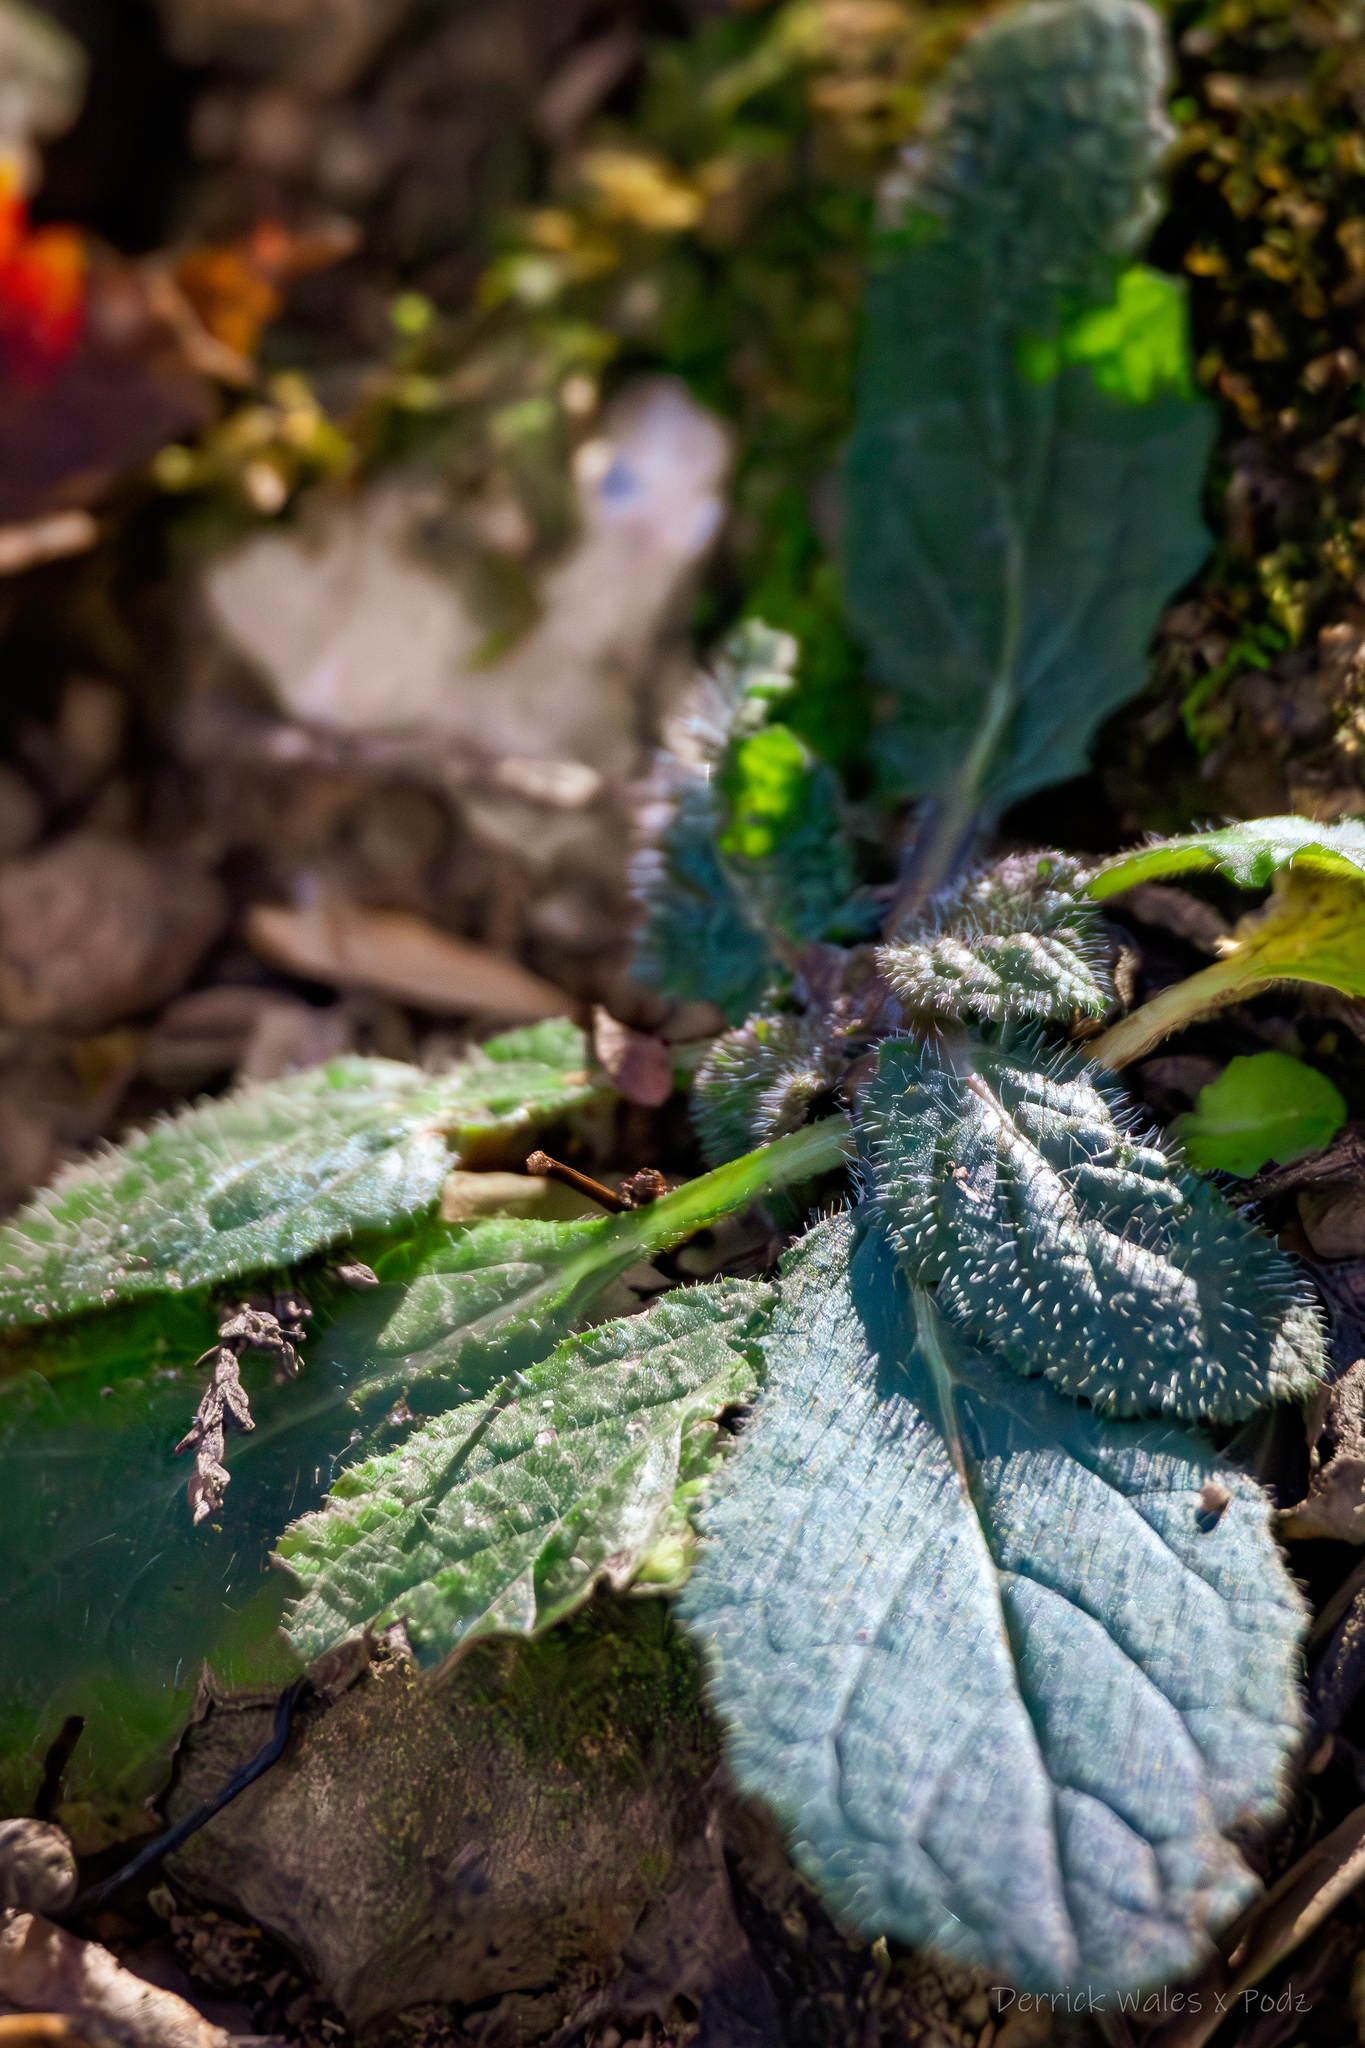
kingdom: Plantae
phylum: Tracheophyta
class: Magnoliopsida
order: Lamiales
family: Lamiaceae
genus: Salvia
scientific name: Salvia lyrata
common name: Cancerweed
